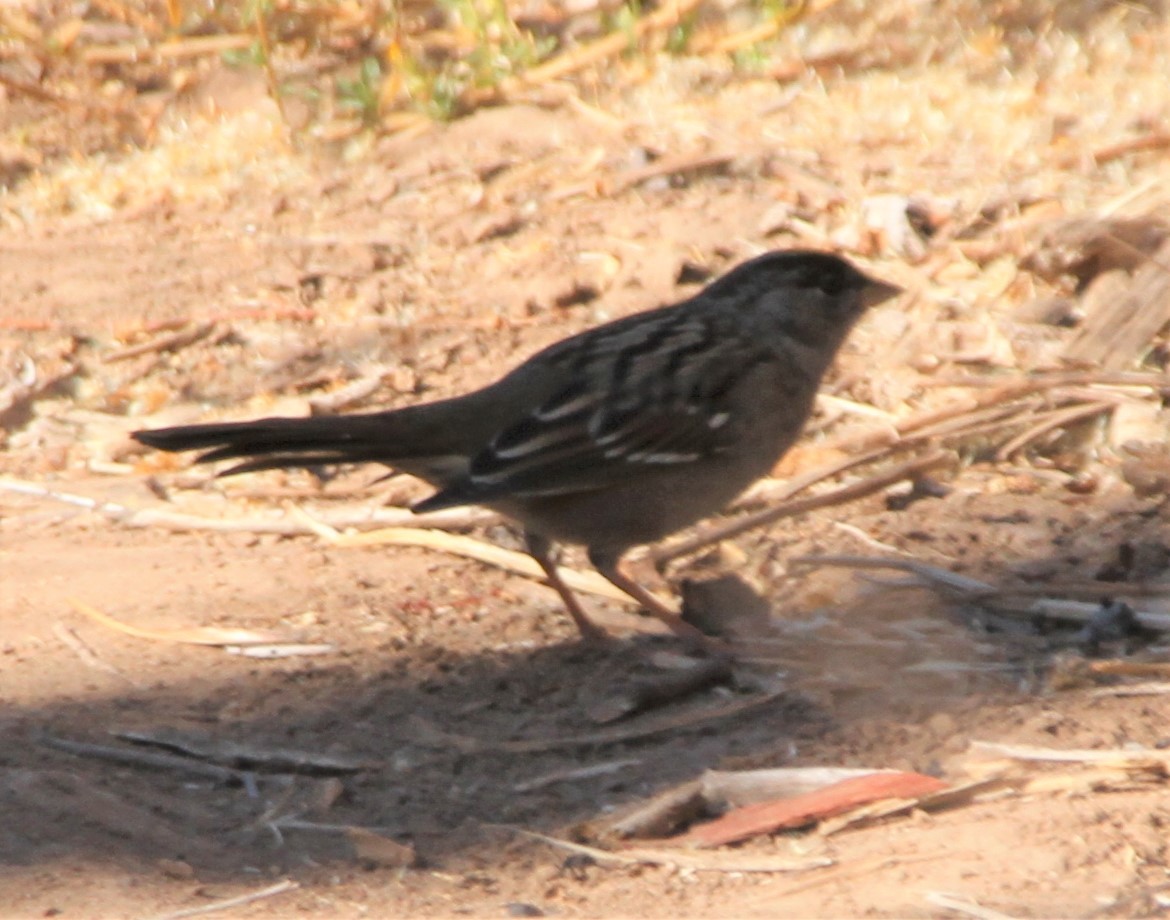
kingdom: Animalia
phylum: Chordata
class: Aves
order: Passeriformes
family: Passerellidae
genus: Zonotrichia
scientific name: Zonotrichia atricapilla
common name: Golden-crowned sparrow
